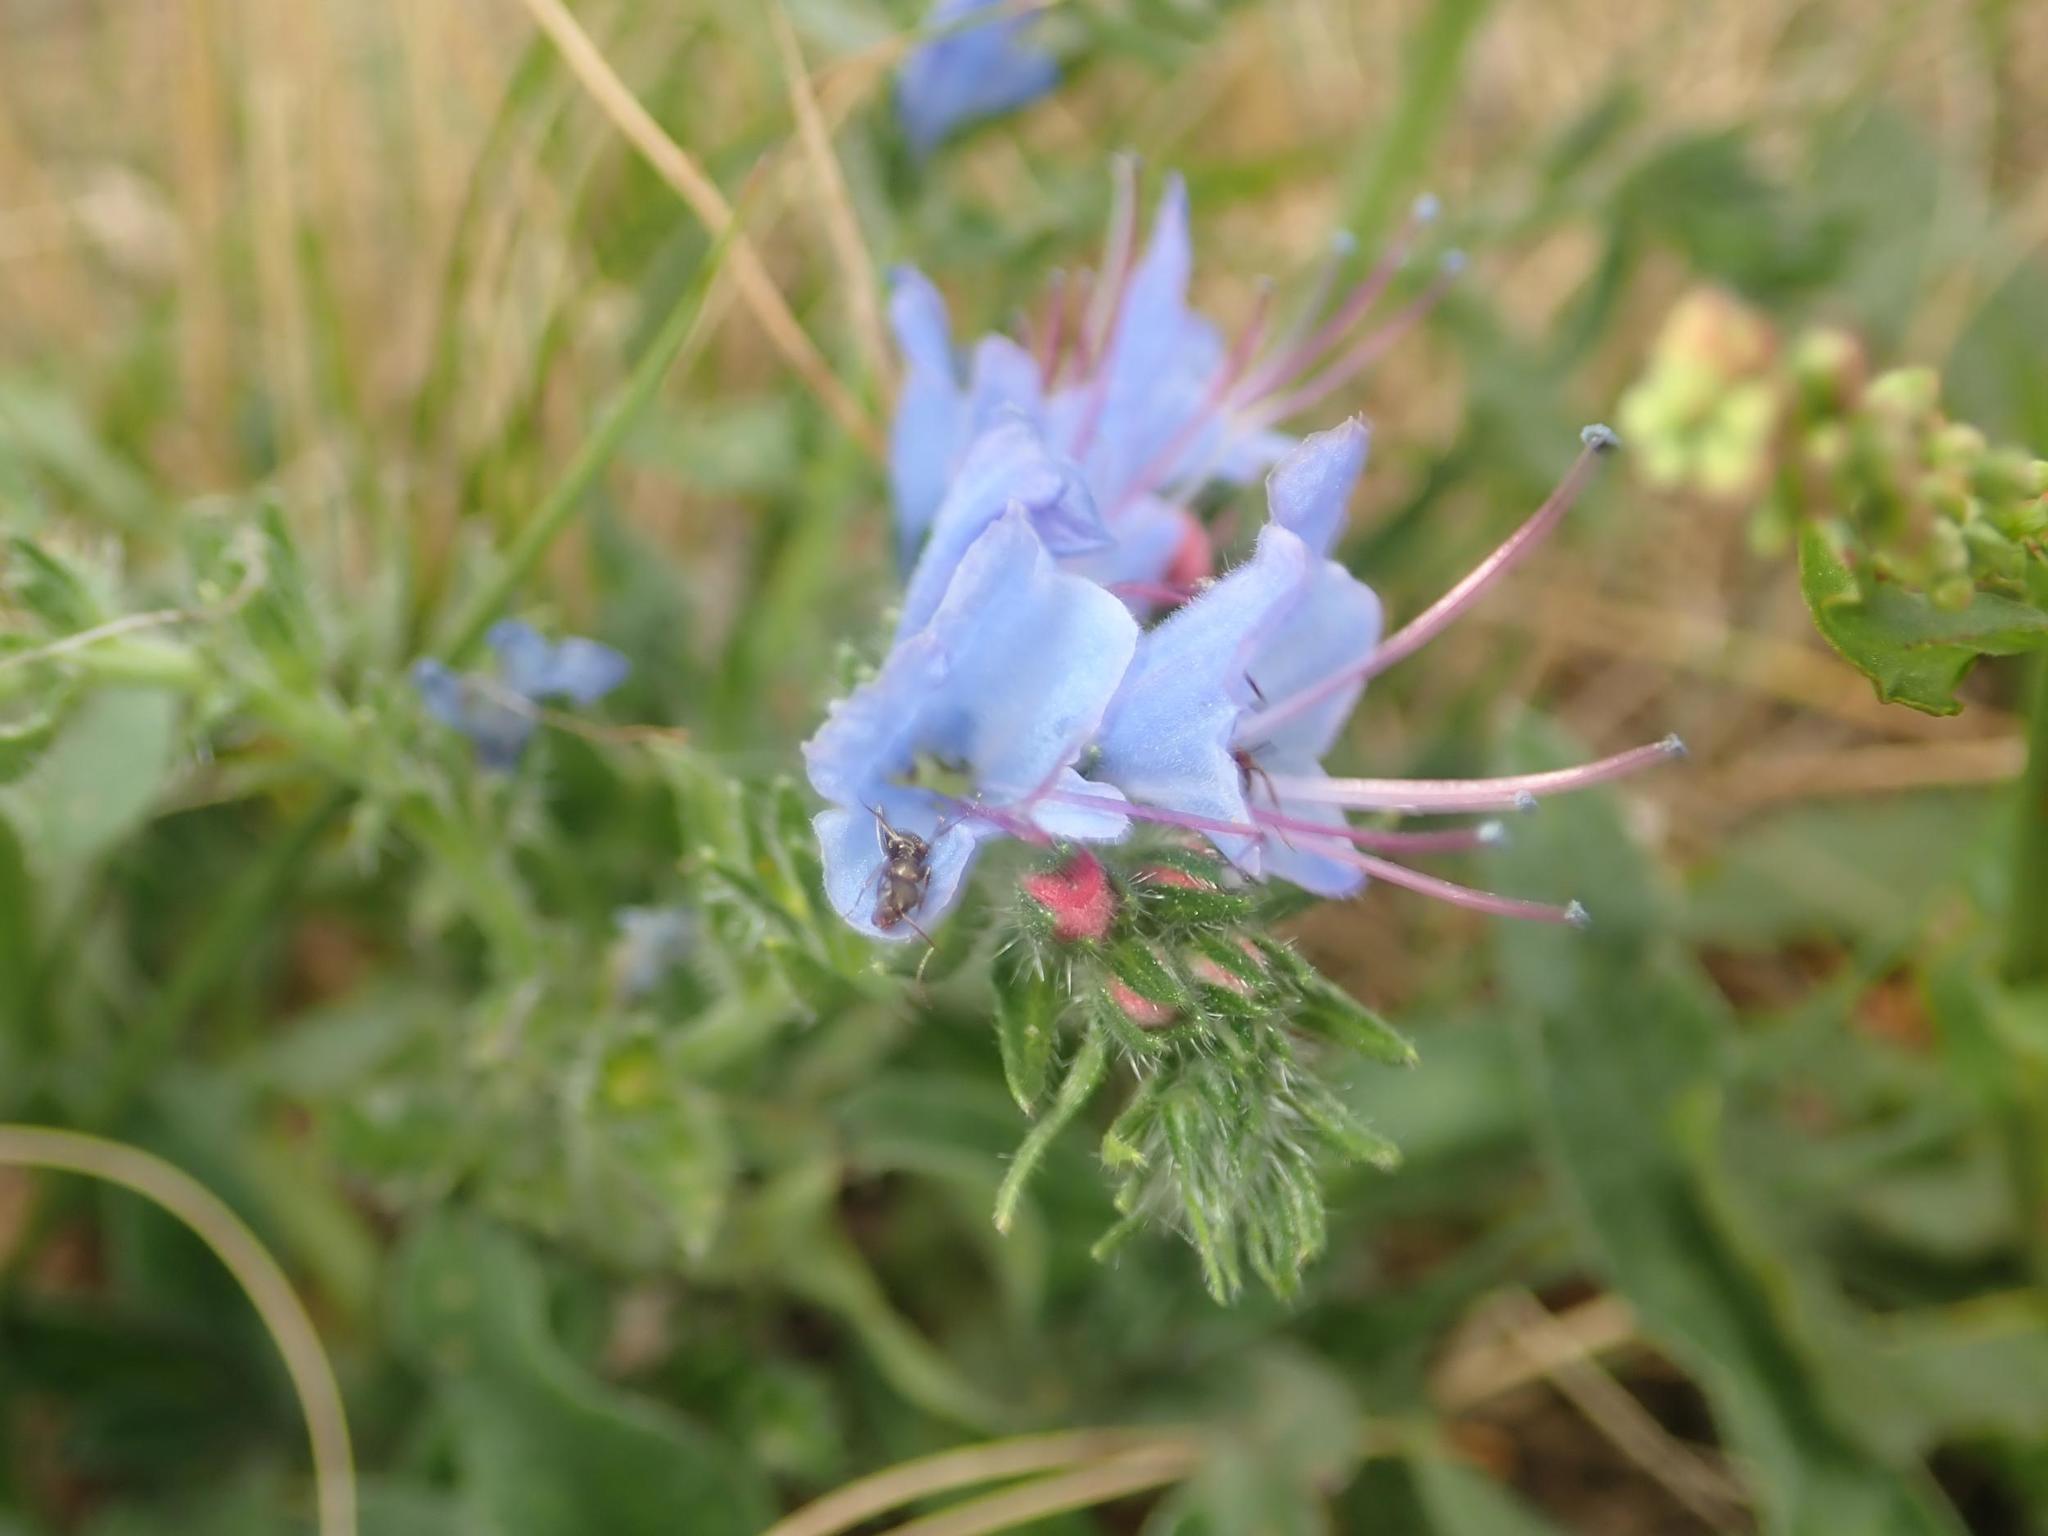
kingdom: Plantae
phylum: Tracheophyta
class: Magnoliopsida
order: Boraginales
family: Boraginaceae
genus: Echium
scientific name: Echium vulgare
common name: Common viper's bugloss
